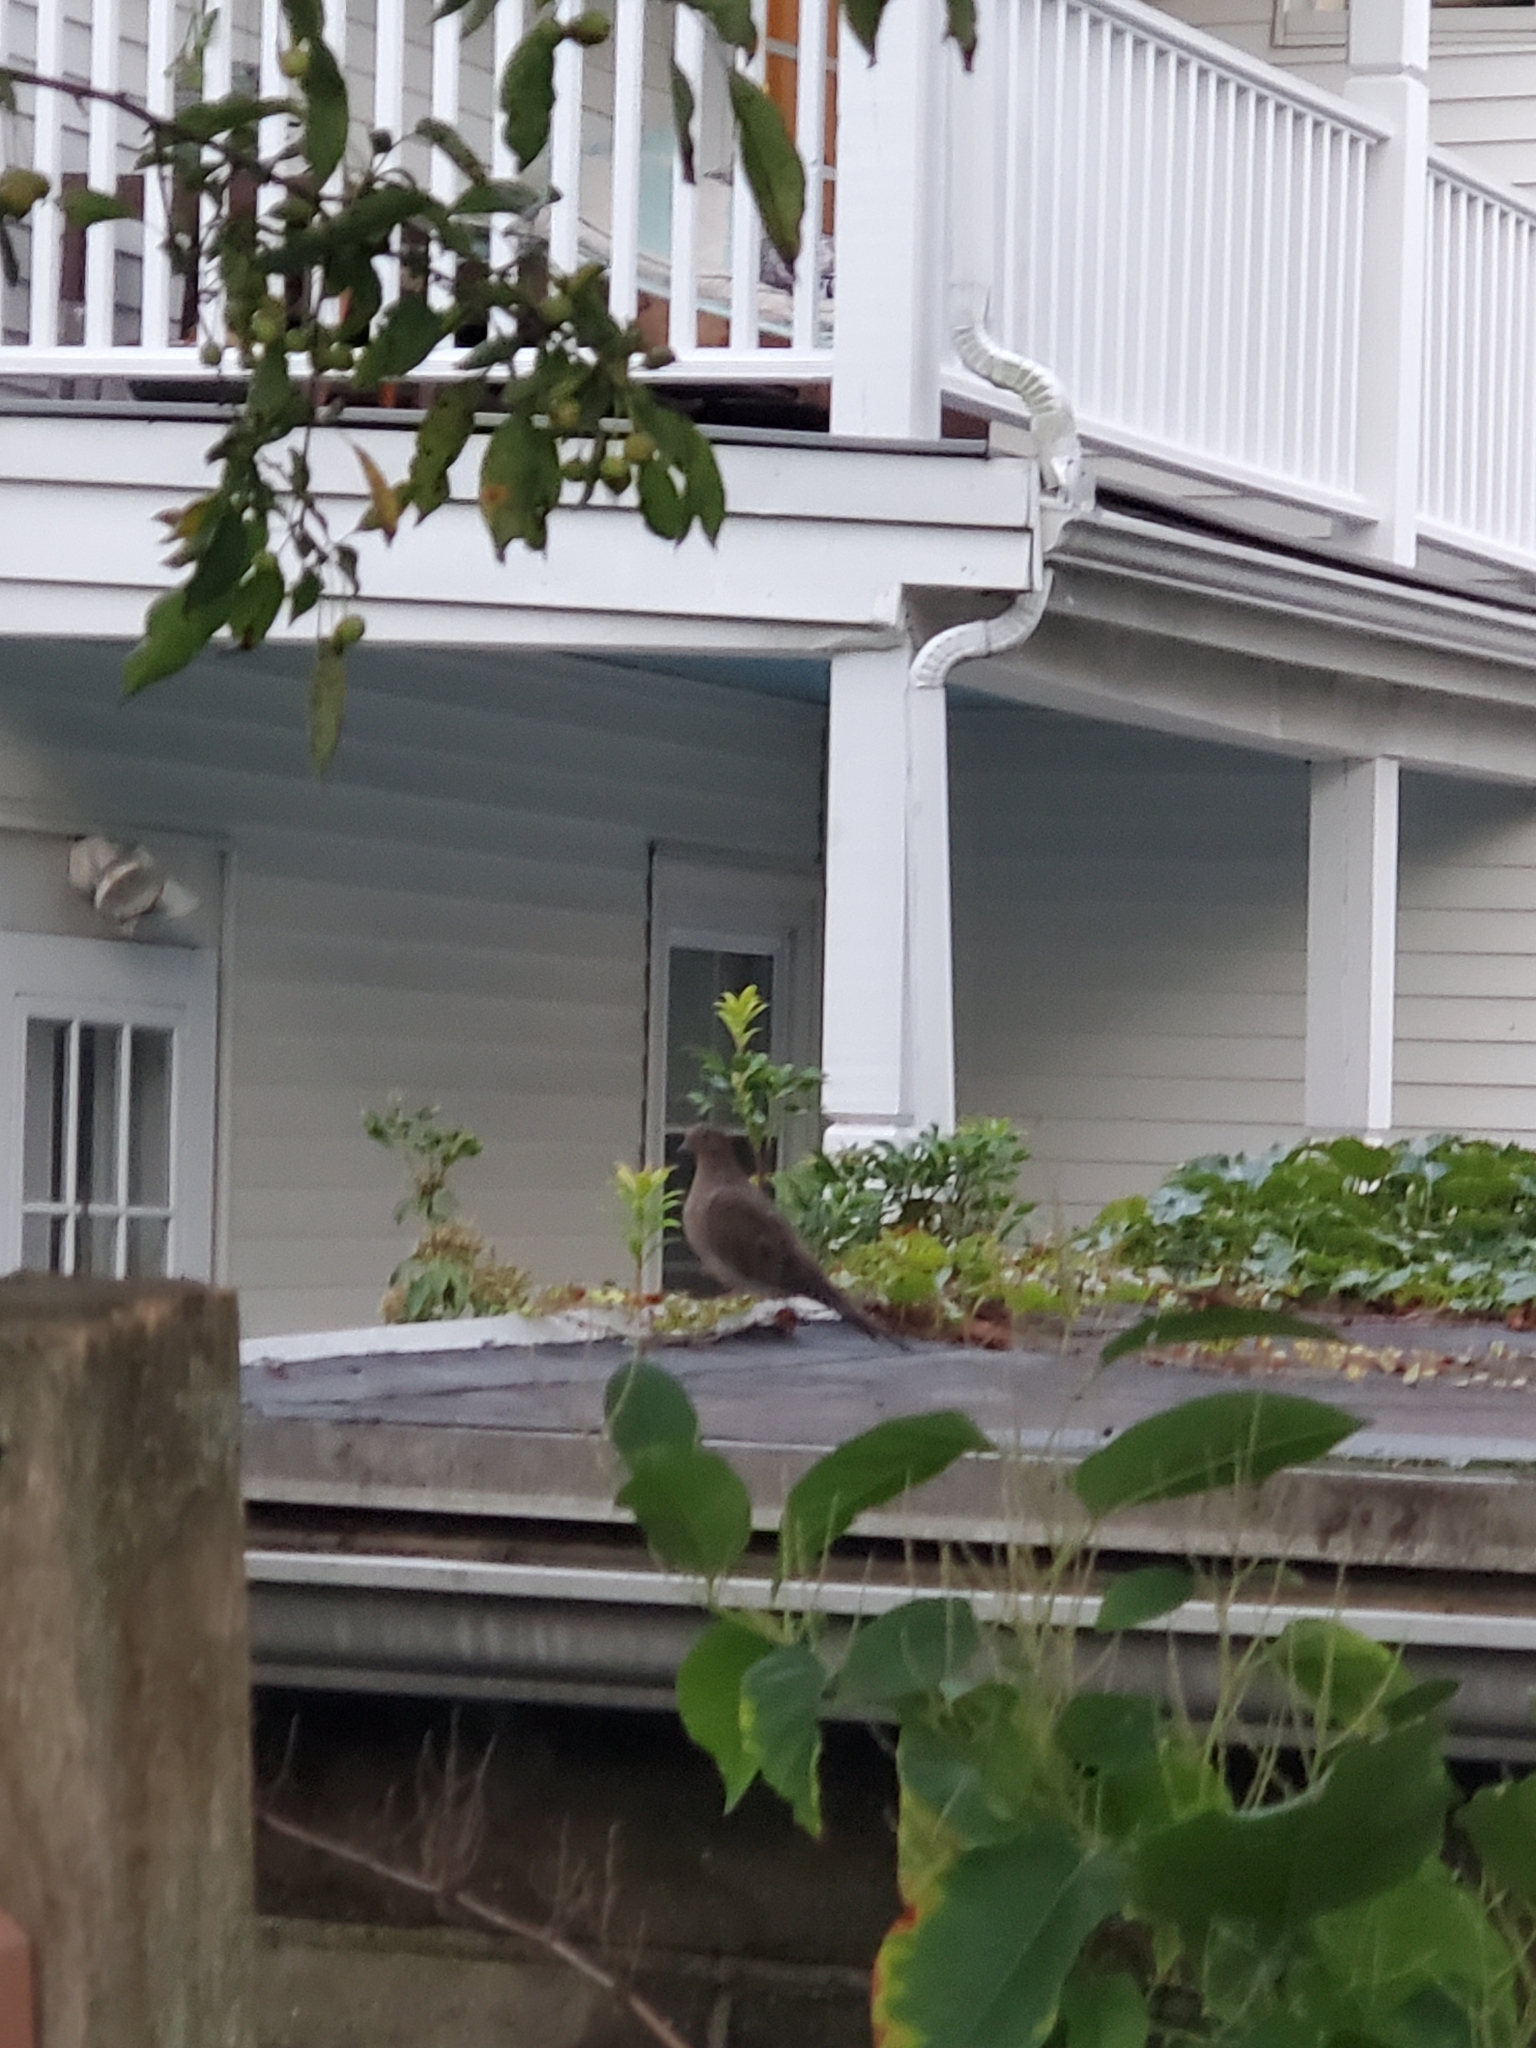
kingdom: Animalia
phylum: Chordata
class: Aves
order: Columbiformes
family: Columbidae
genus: Zenaida
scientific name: Zenaida macroura
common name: Mourning dove
